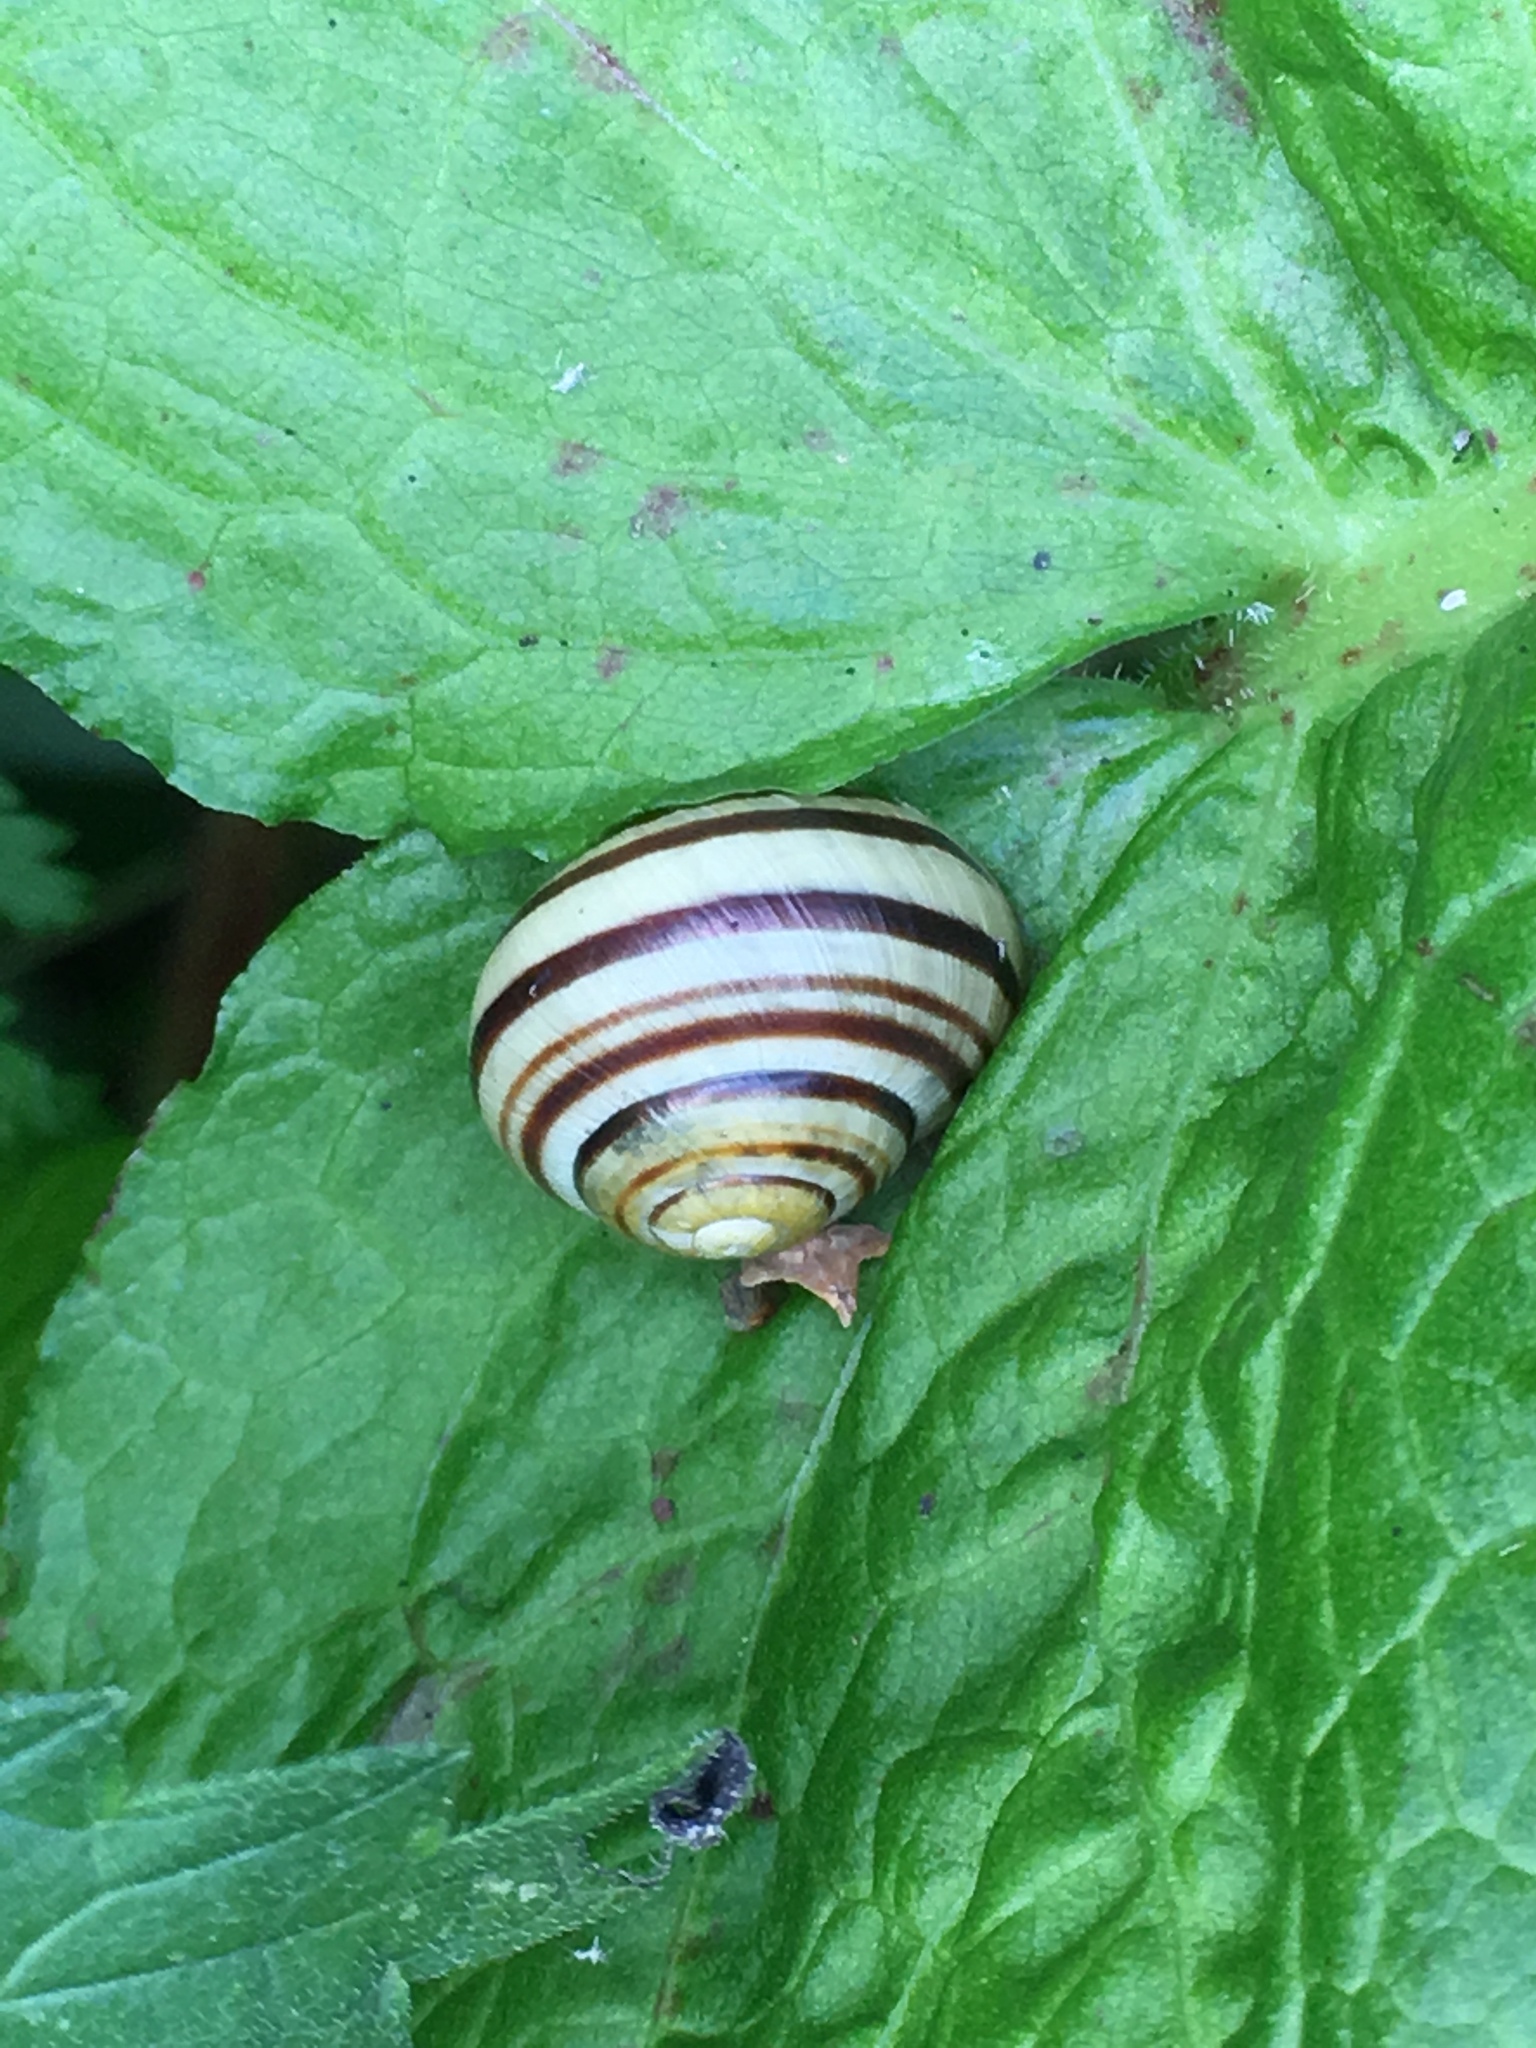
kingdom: Animalia
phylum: Mollusca
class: Gastropoda
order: Stylommatophora
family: Helicidae
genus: Cepaea
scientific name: Cepaea
